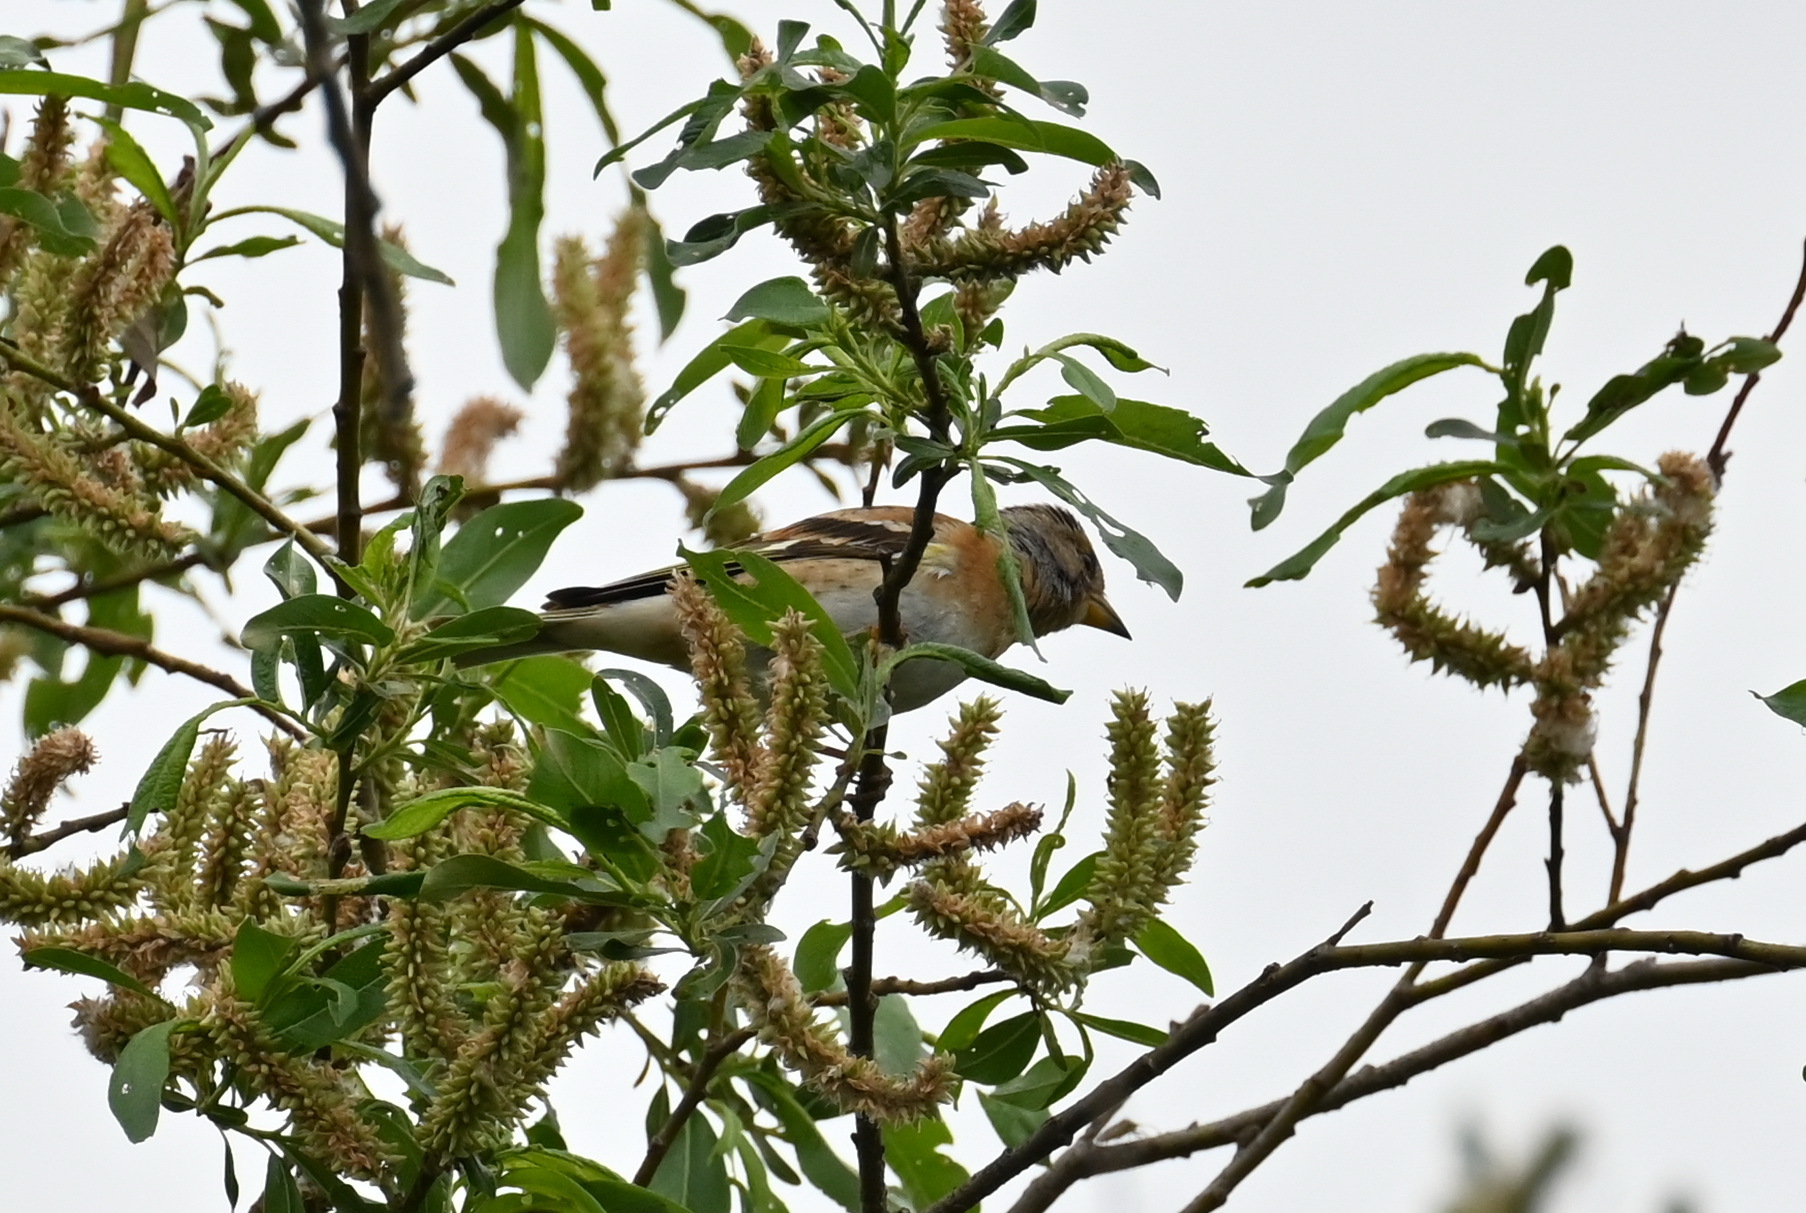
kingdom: Animalia
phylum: Chordata
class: Aves
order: Passeriformes
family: Fringillidae
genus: Fringilla
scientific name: Fringilla montifringilla
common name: Brambling
